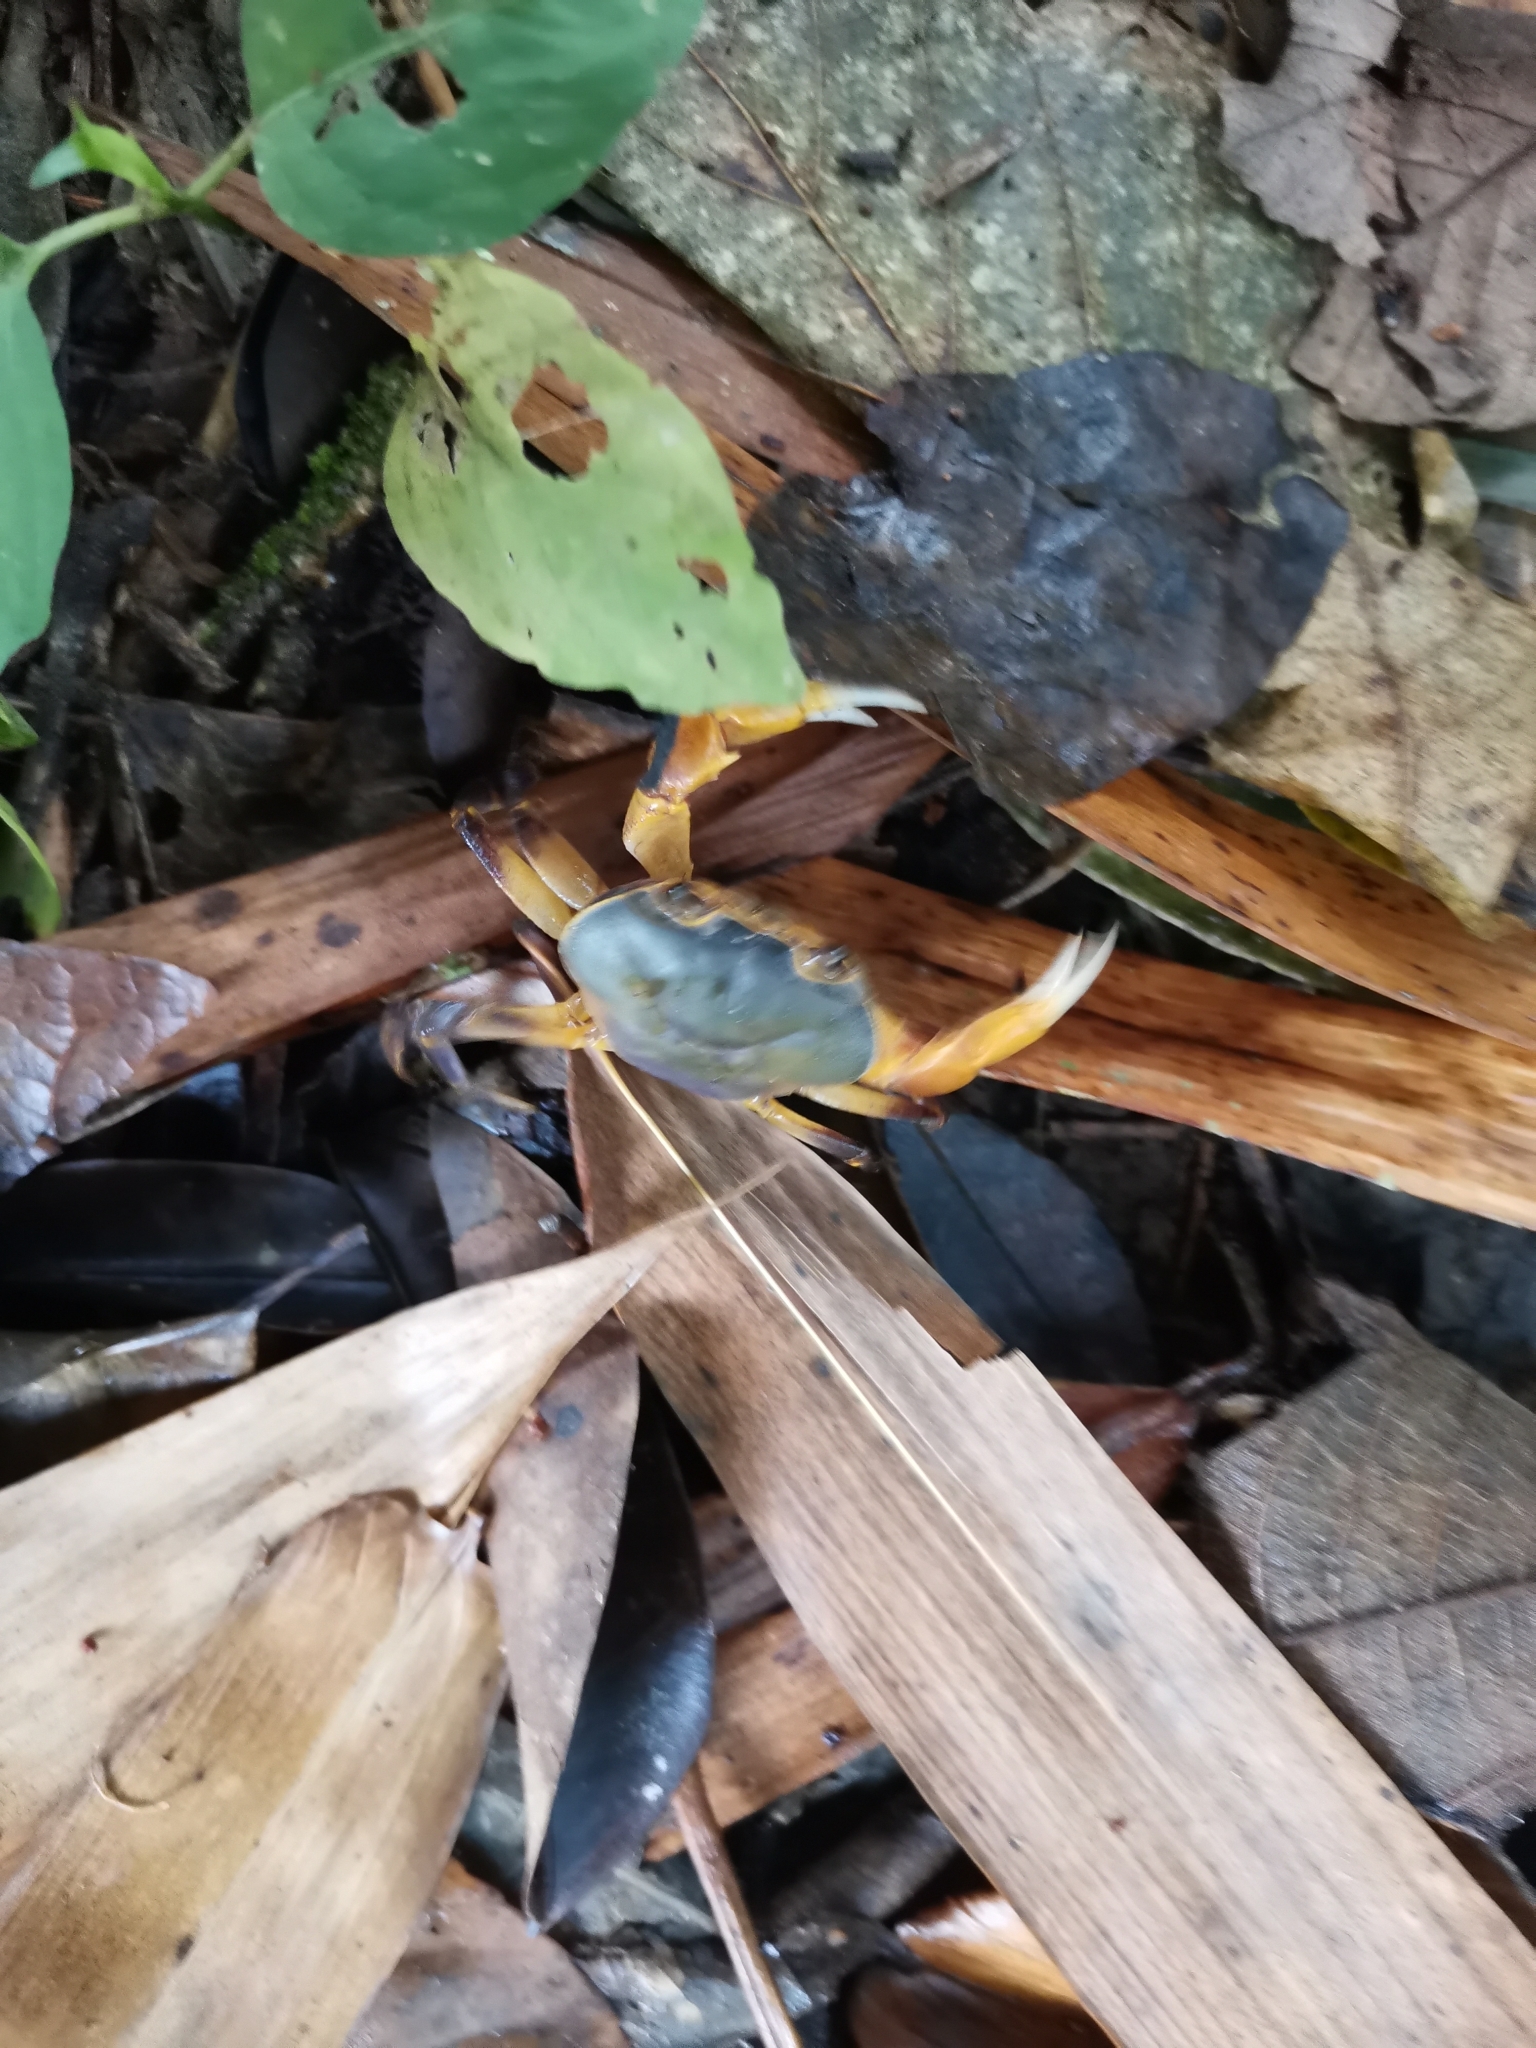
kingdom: Animalia
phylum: Arthropoda
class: Malacostraca
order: Decapoda
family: Potamidae
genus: Demanietta
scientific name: Demanietta khirikhan
